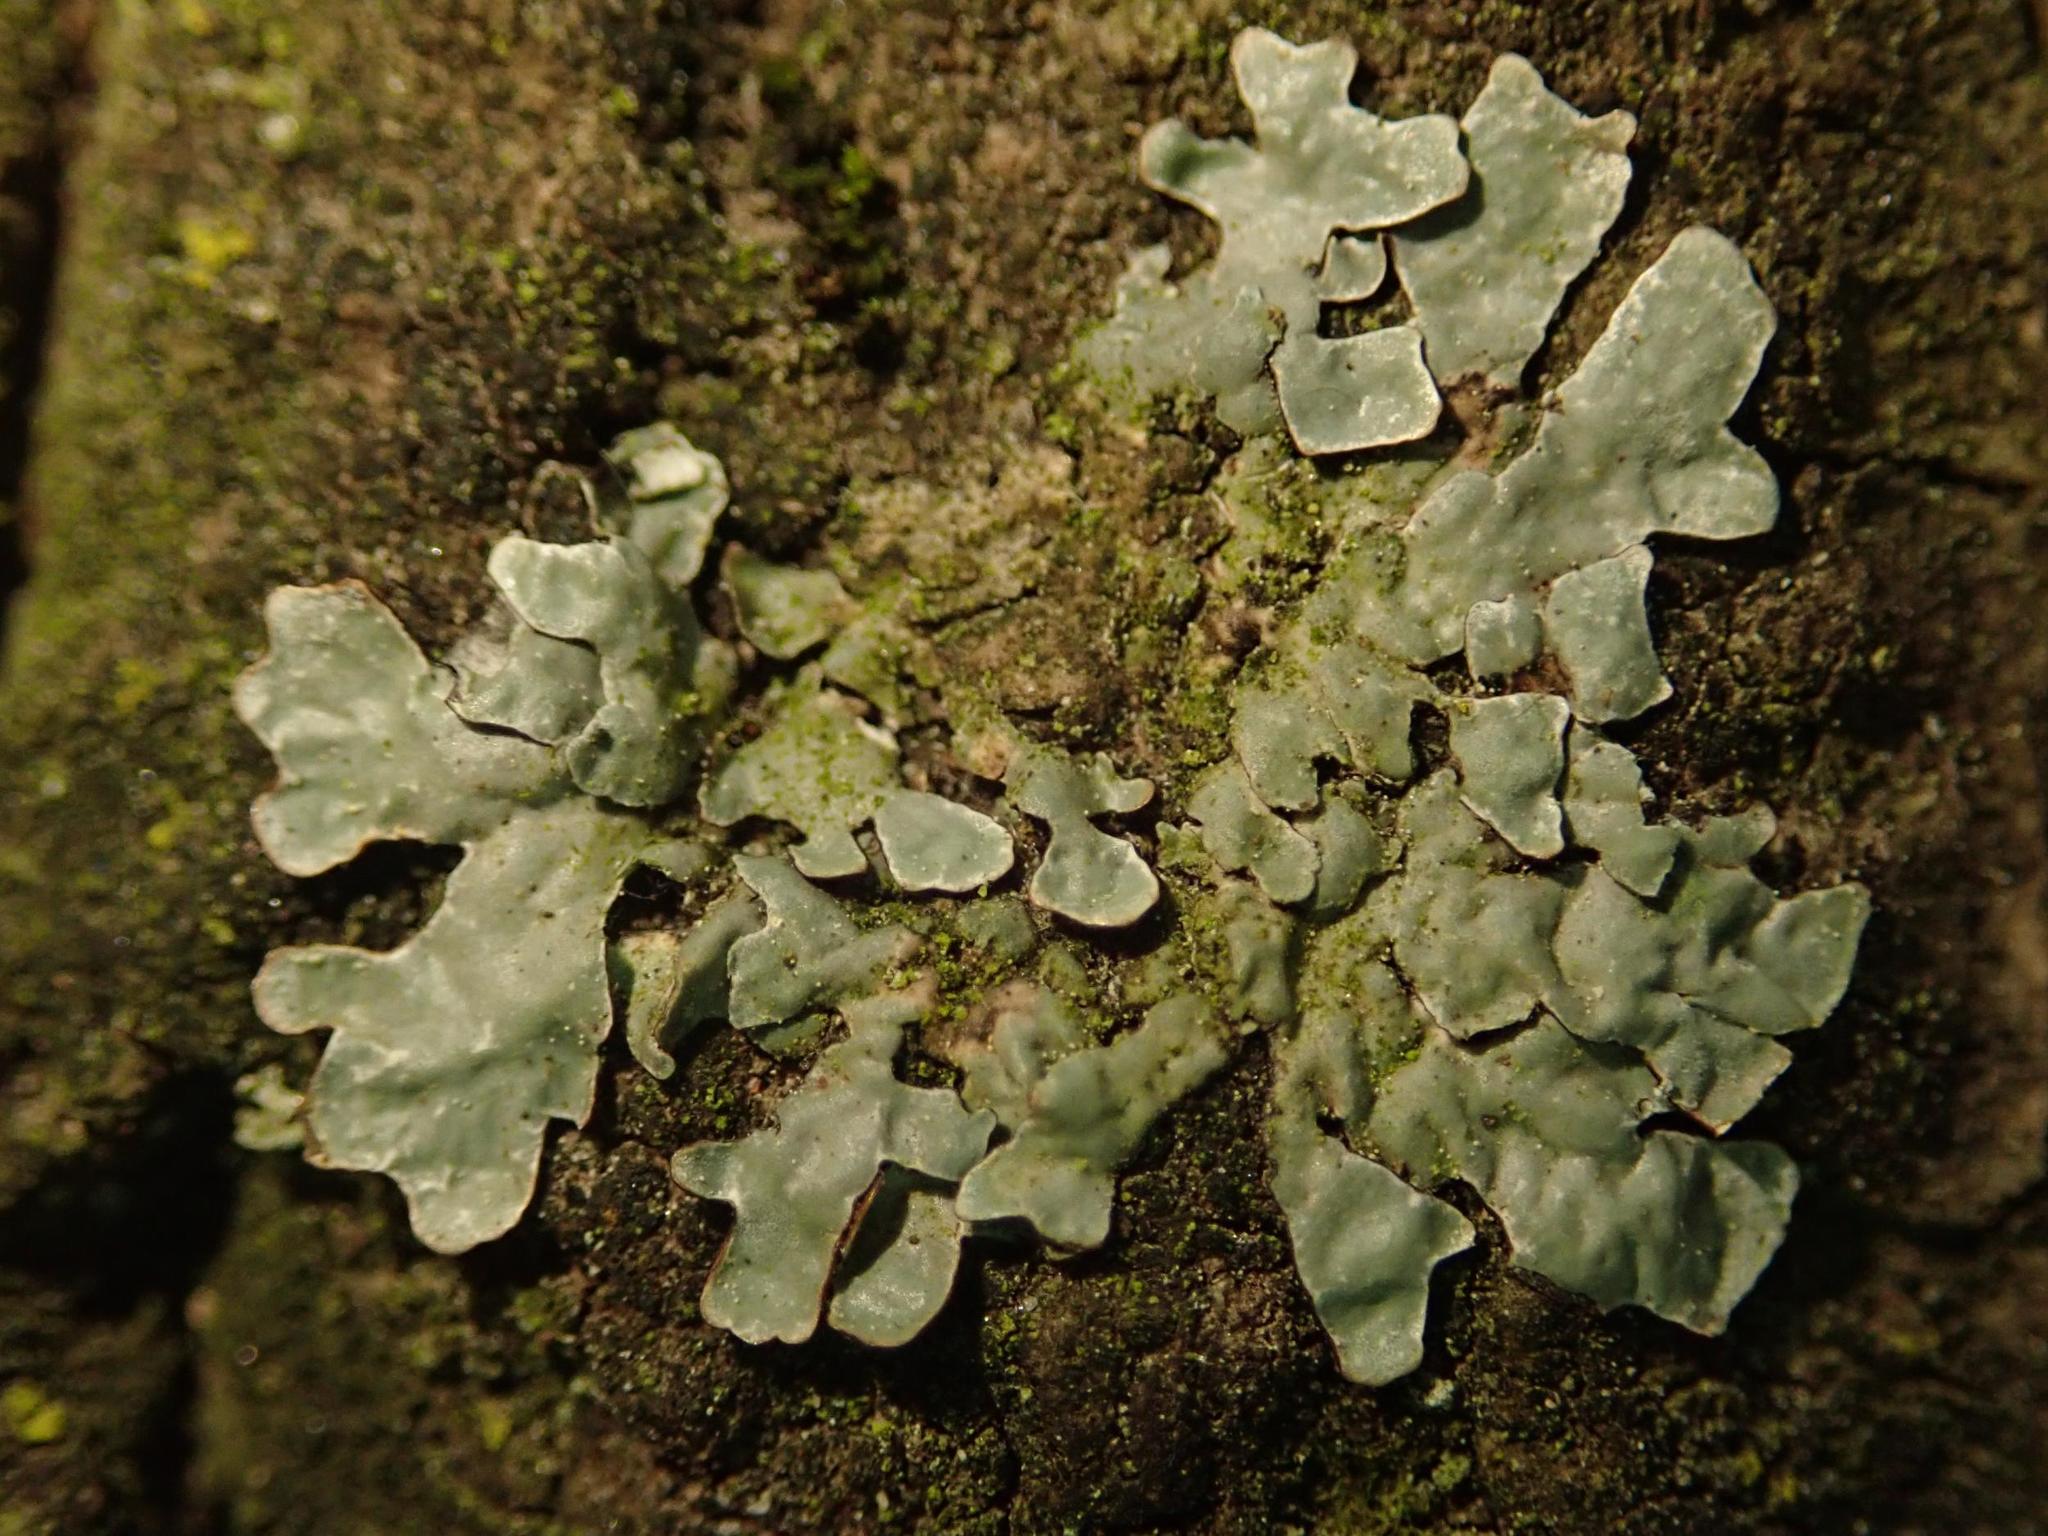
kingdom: Fungi
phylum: Ascomycota
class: Lecanoromycetes
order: Lecanorales
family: Parmeliaceae
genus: Parmelia
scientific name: Parmelia sulcata
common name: Netted shield lichen
